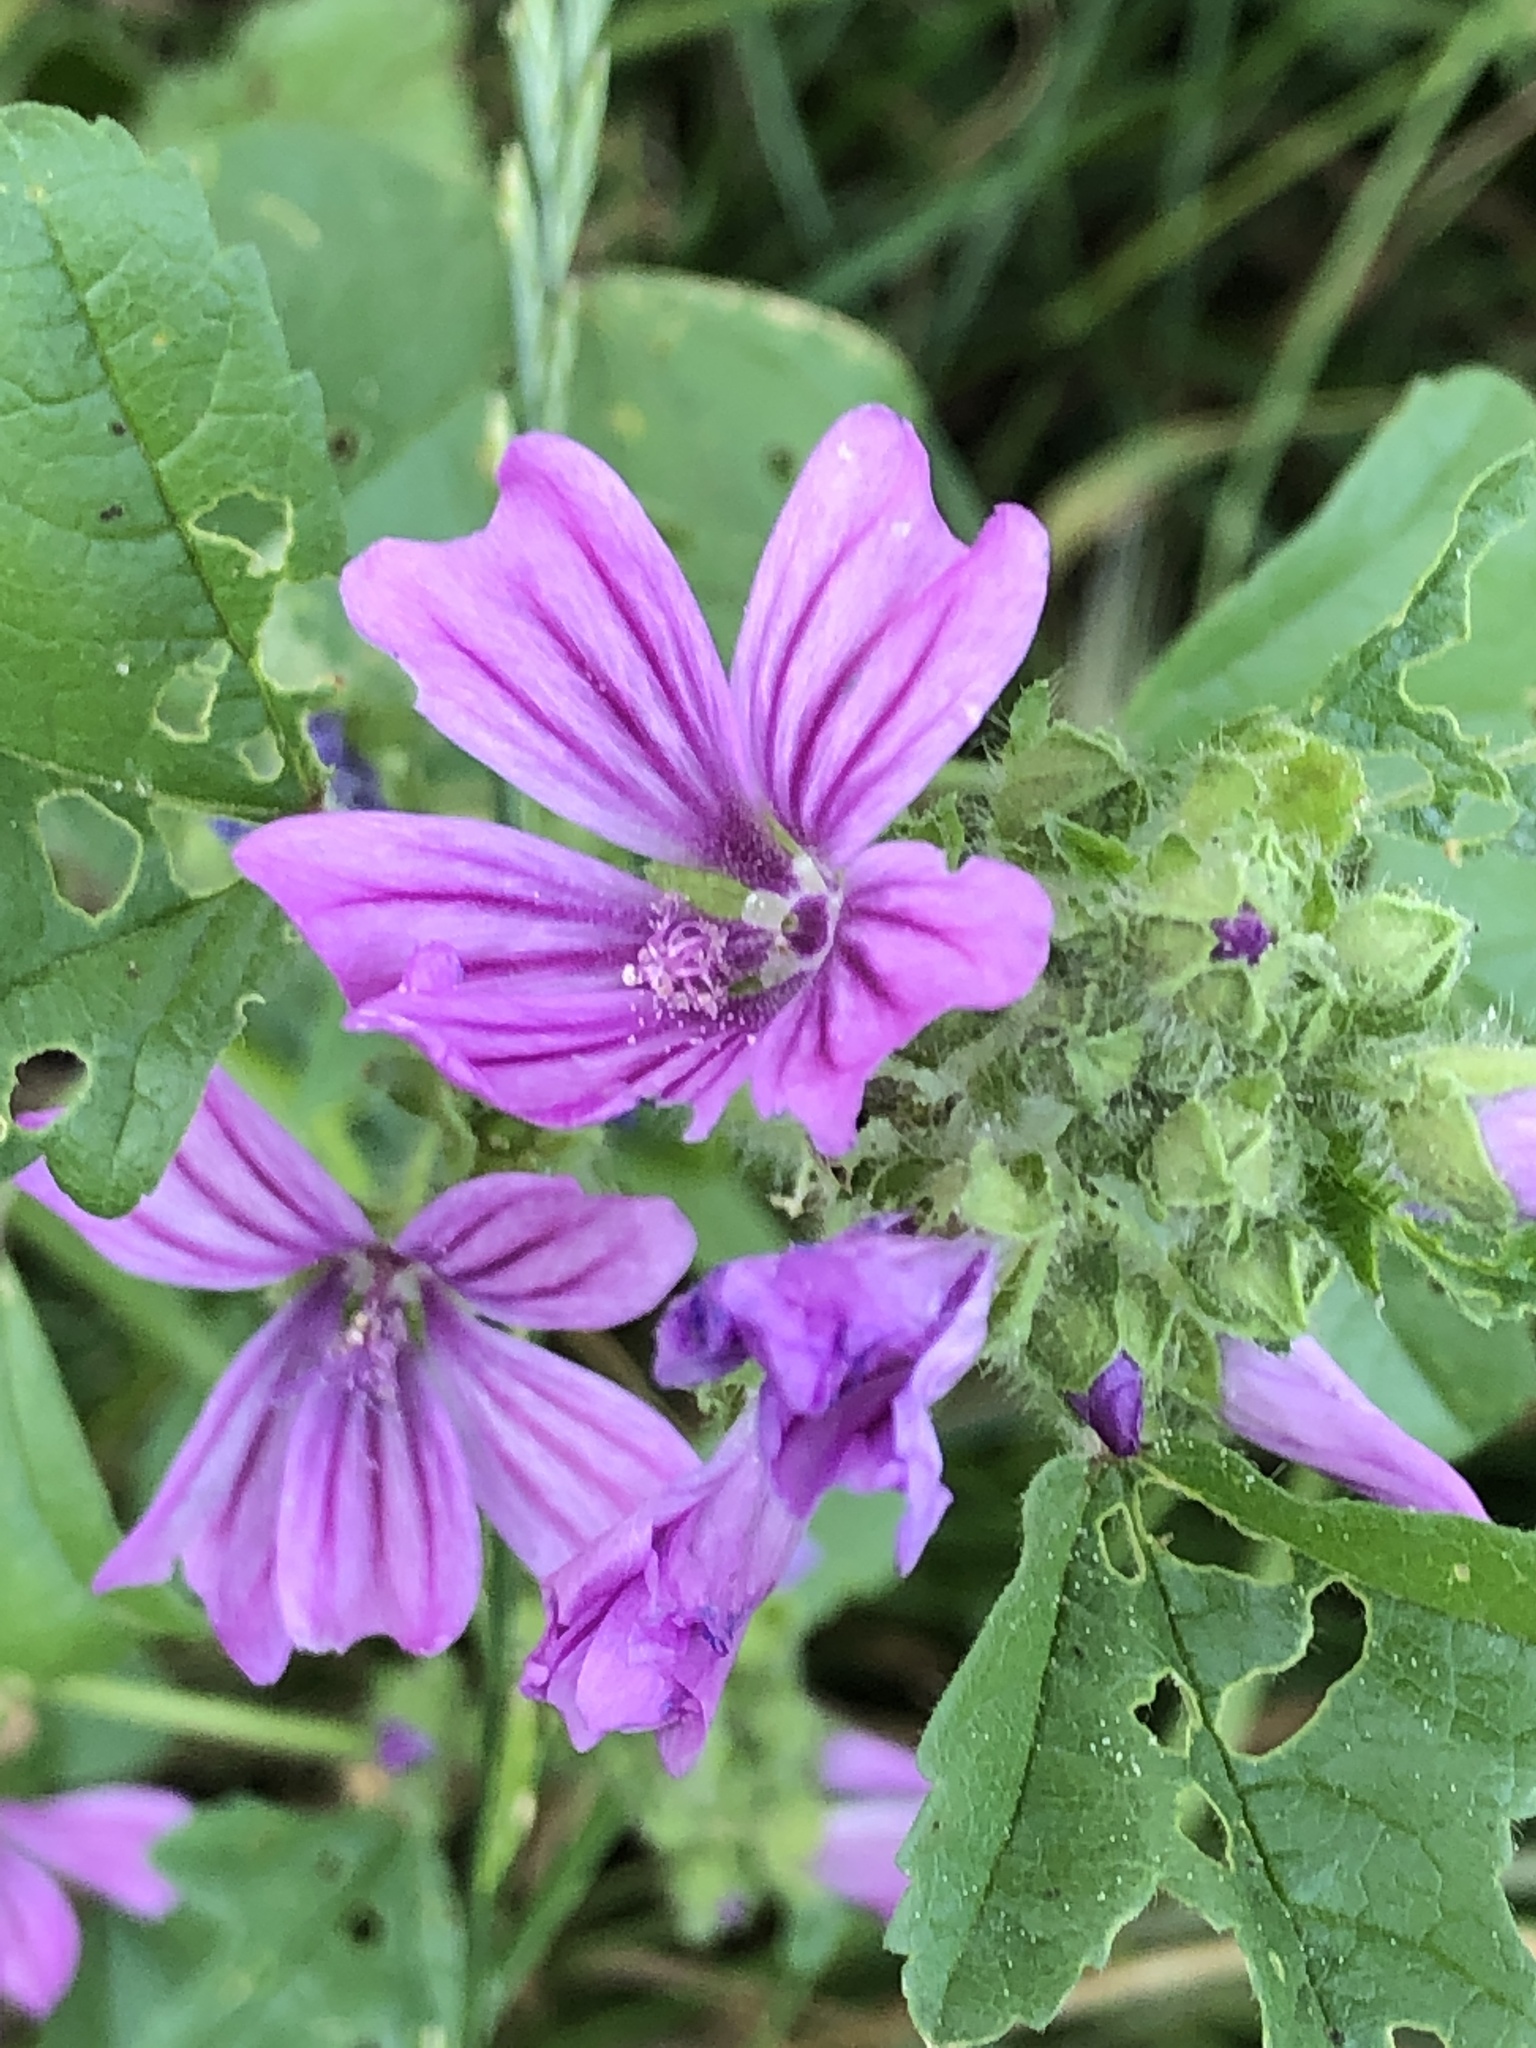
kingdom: Plantae
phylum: Tracheophyta
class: Magnoliopsida
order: Malvales
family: Malvaceae
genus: Malva
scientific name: Malva sylvestris
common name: Common mallow
